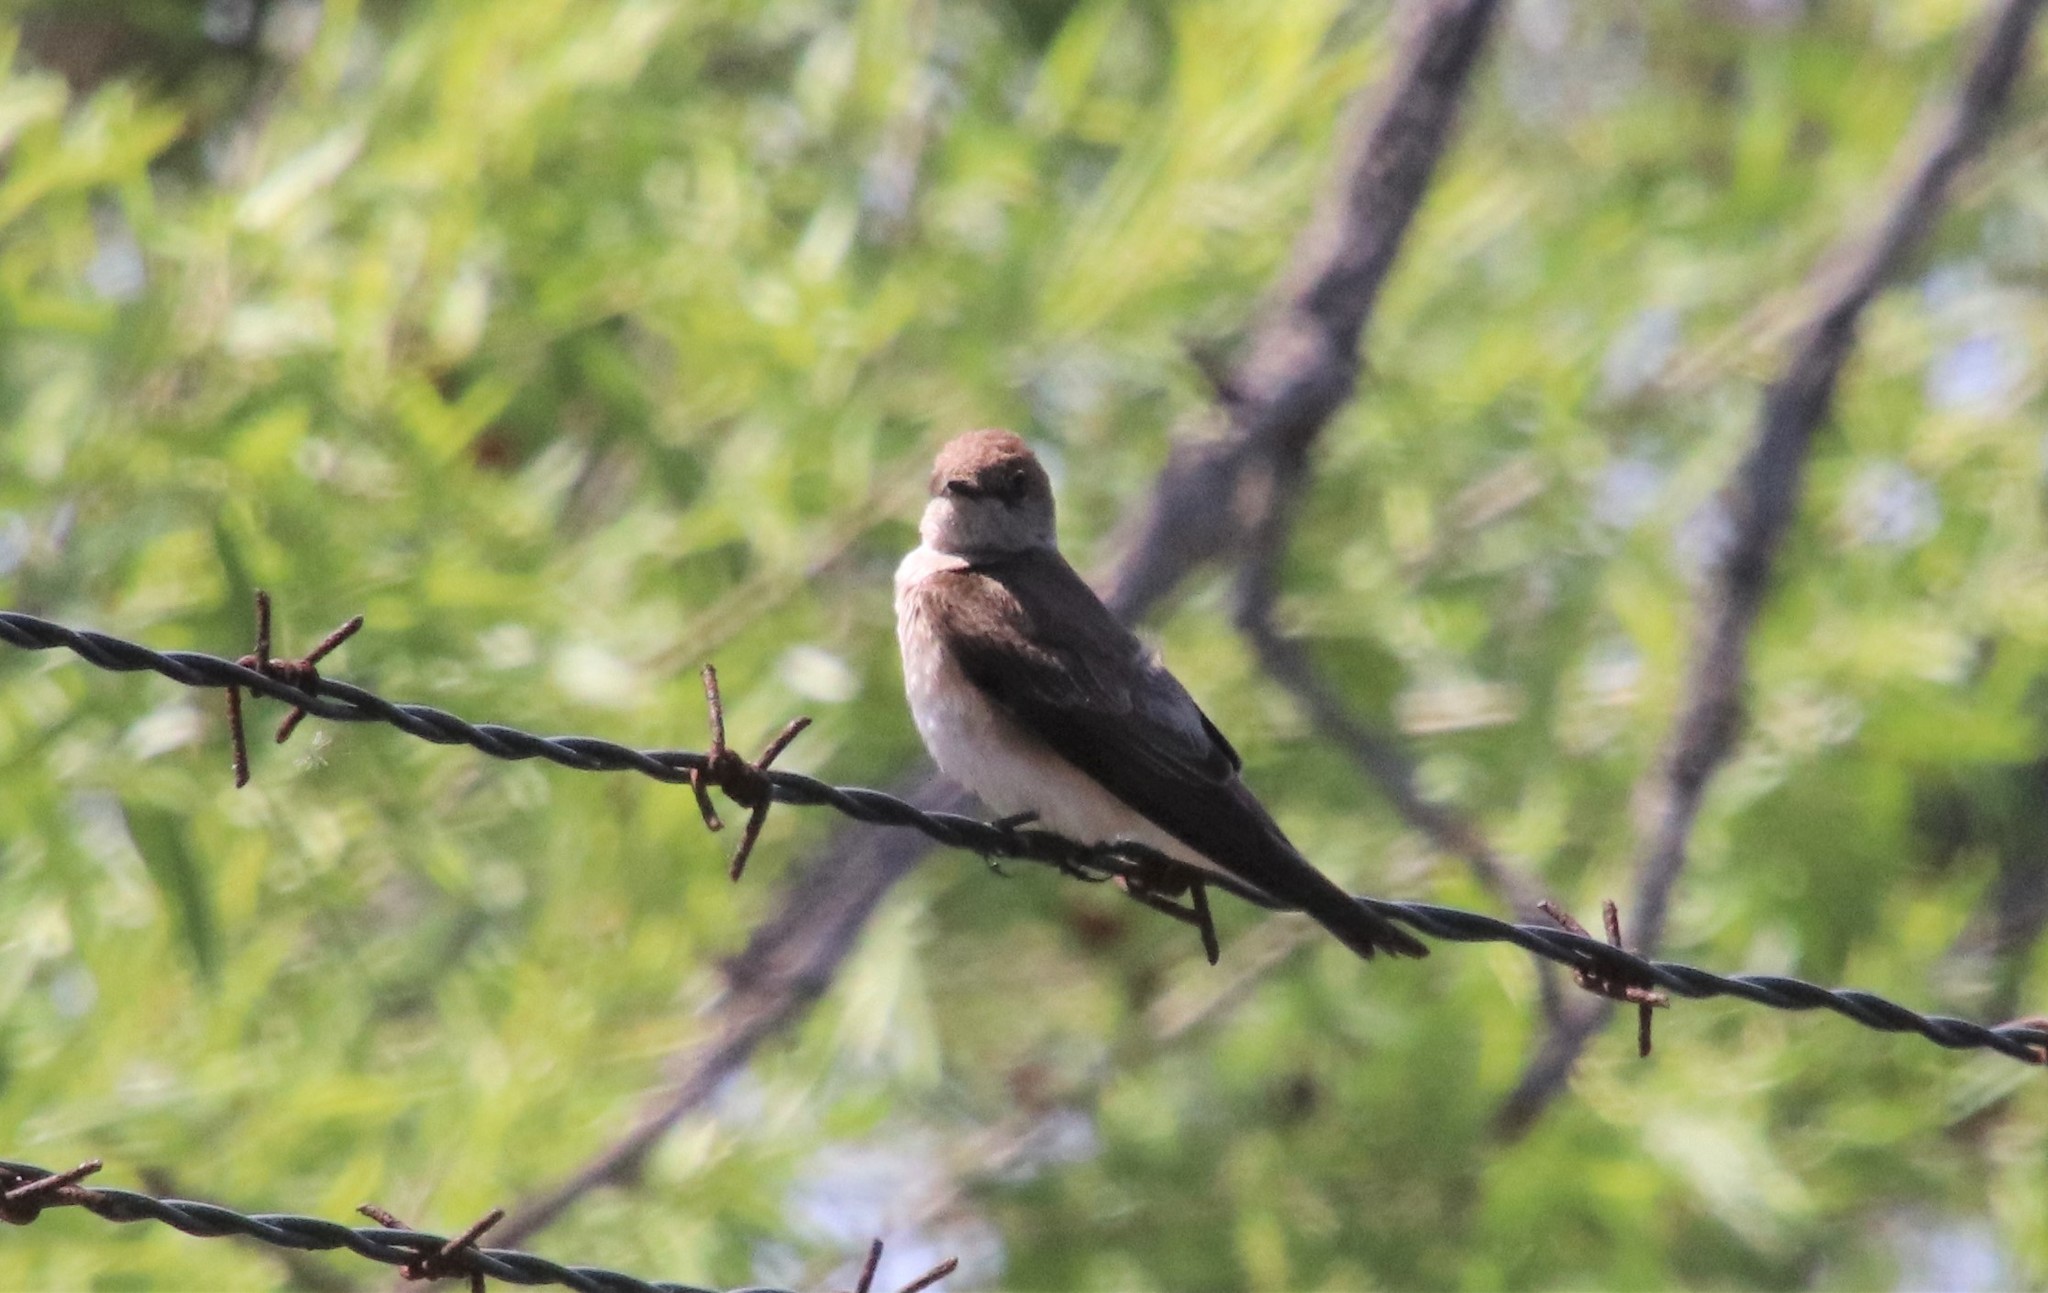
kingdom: Animalia
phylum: Chordata
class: Aves
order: Passeriformes
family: Hirundinidae
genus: Stelgidopteryx
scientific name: Stelgidopteryx serripennis
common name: Northern rough-winged swallow
